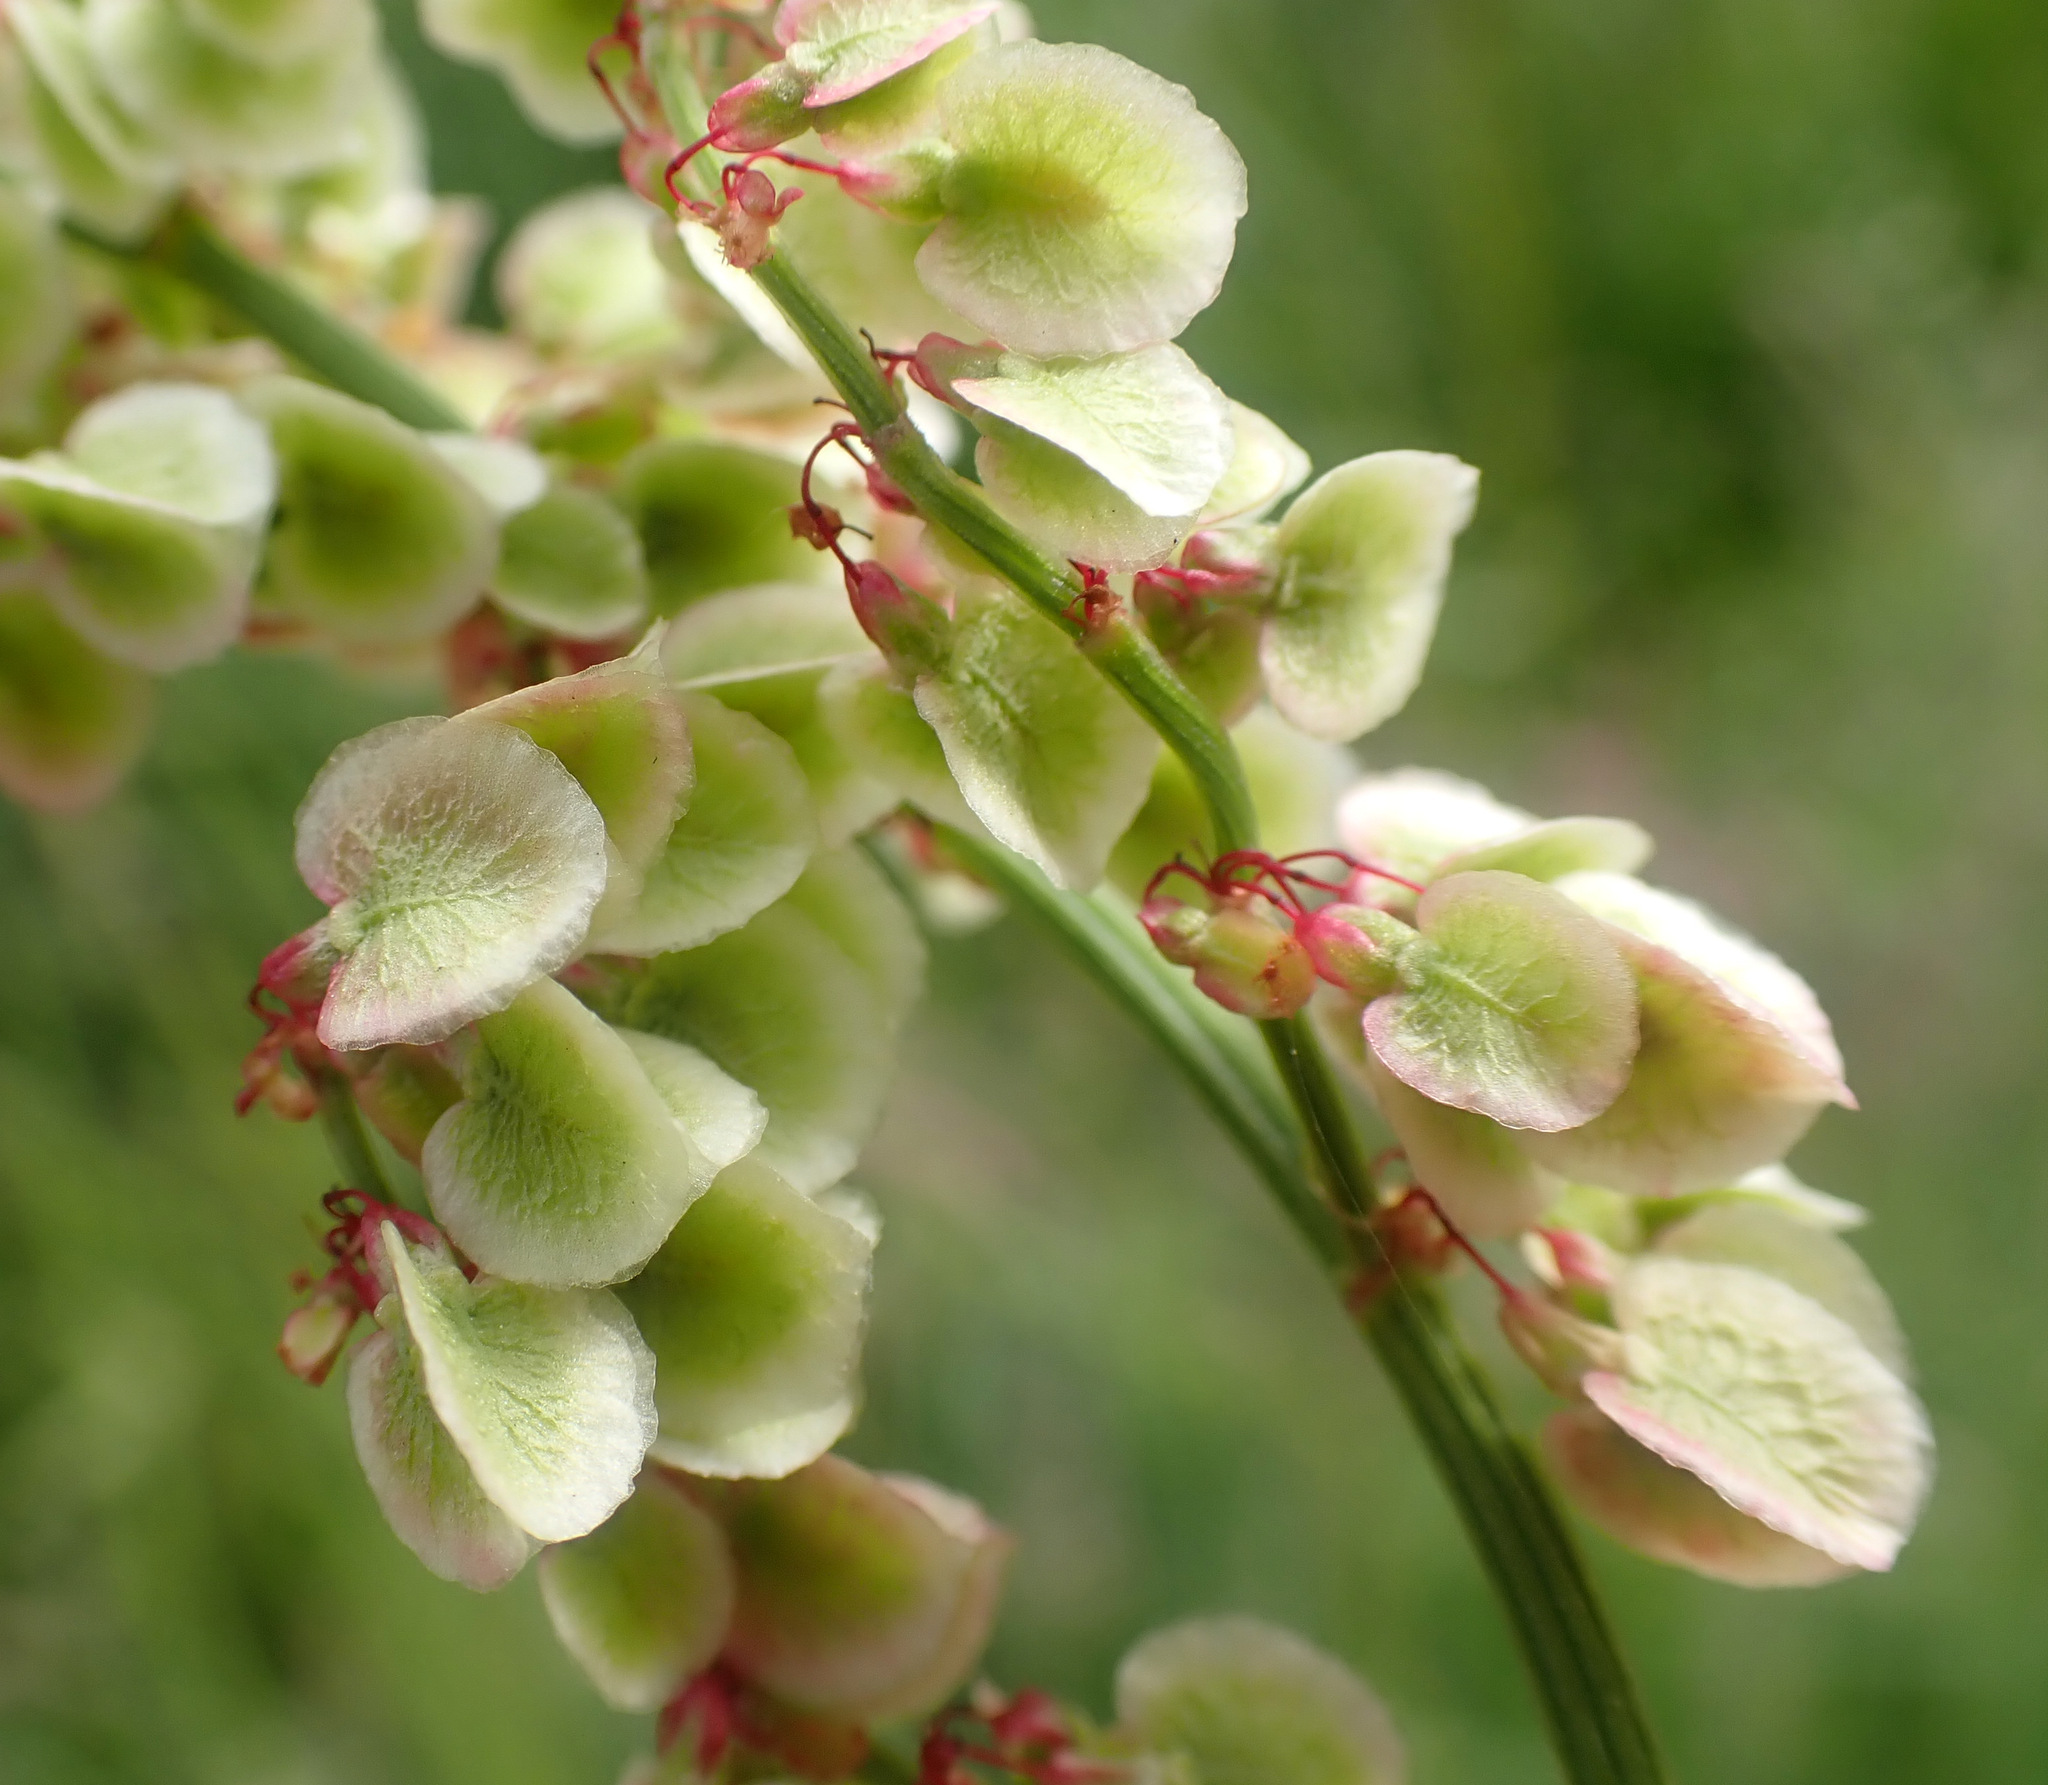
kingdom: Plantae
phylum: Tracheophyta
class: Magnoliopsida
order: Caryophyllales
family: Polygonaceae
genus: Rumex
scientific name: Rumex acetosa
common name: Garden sorrel
